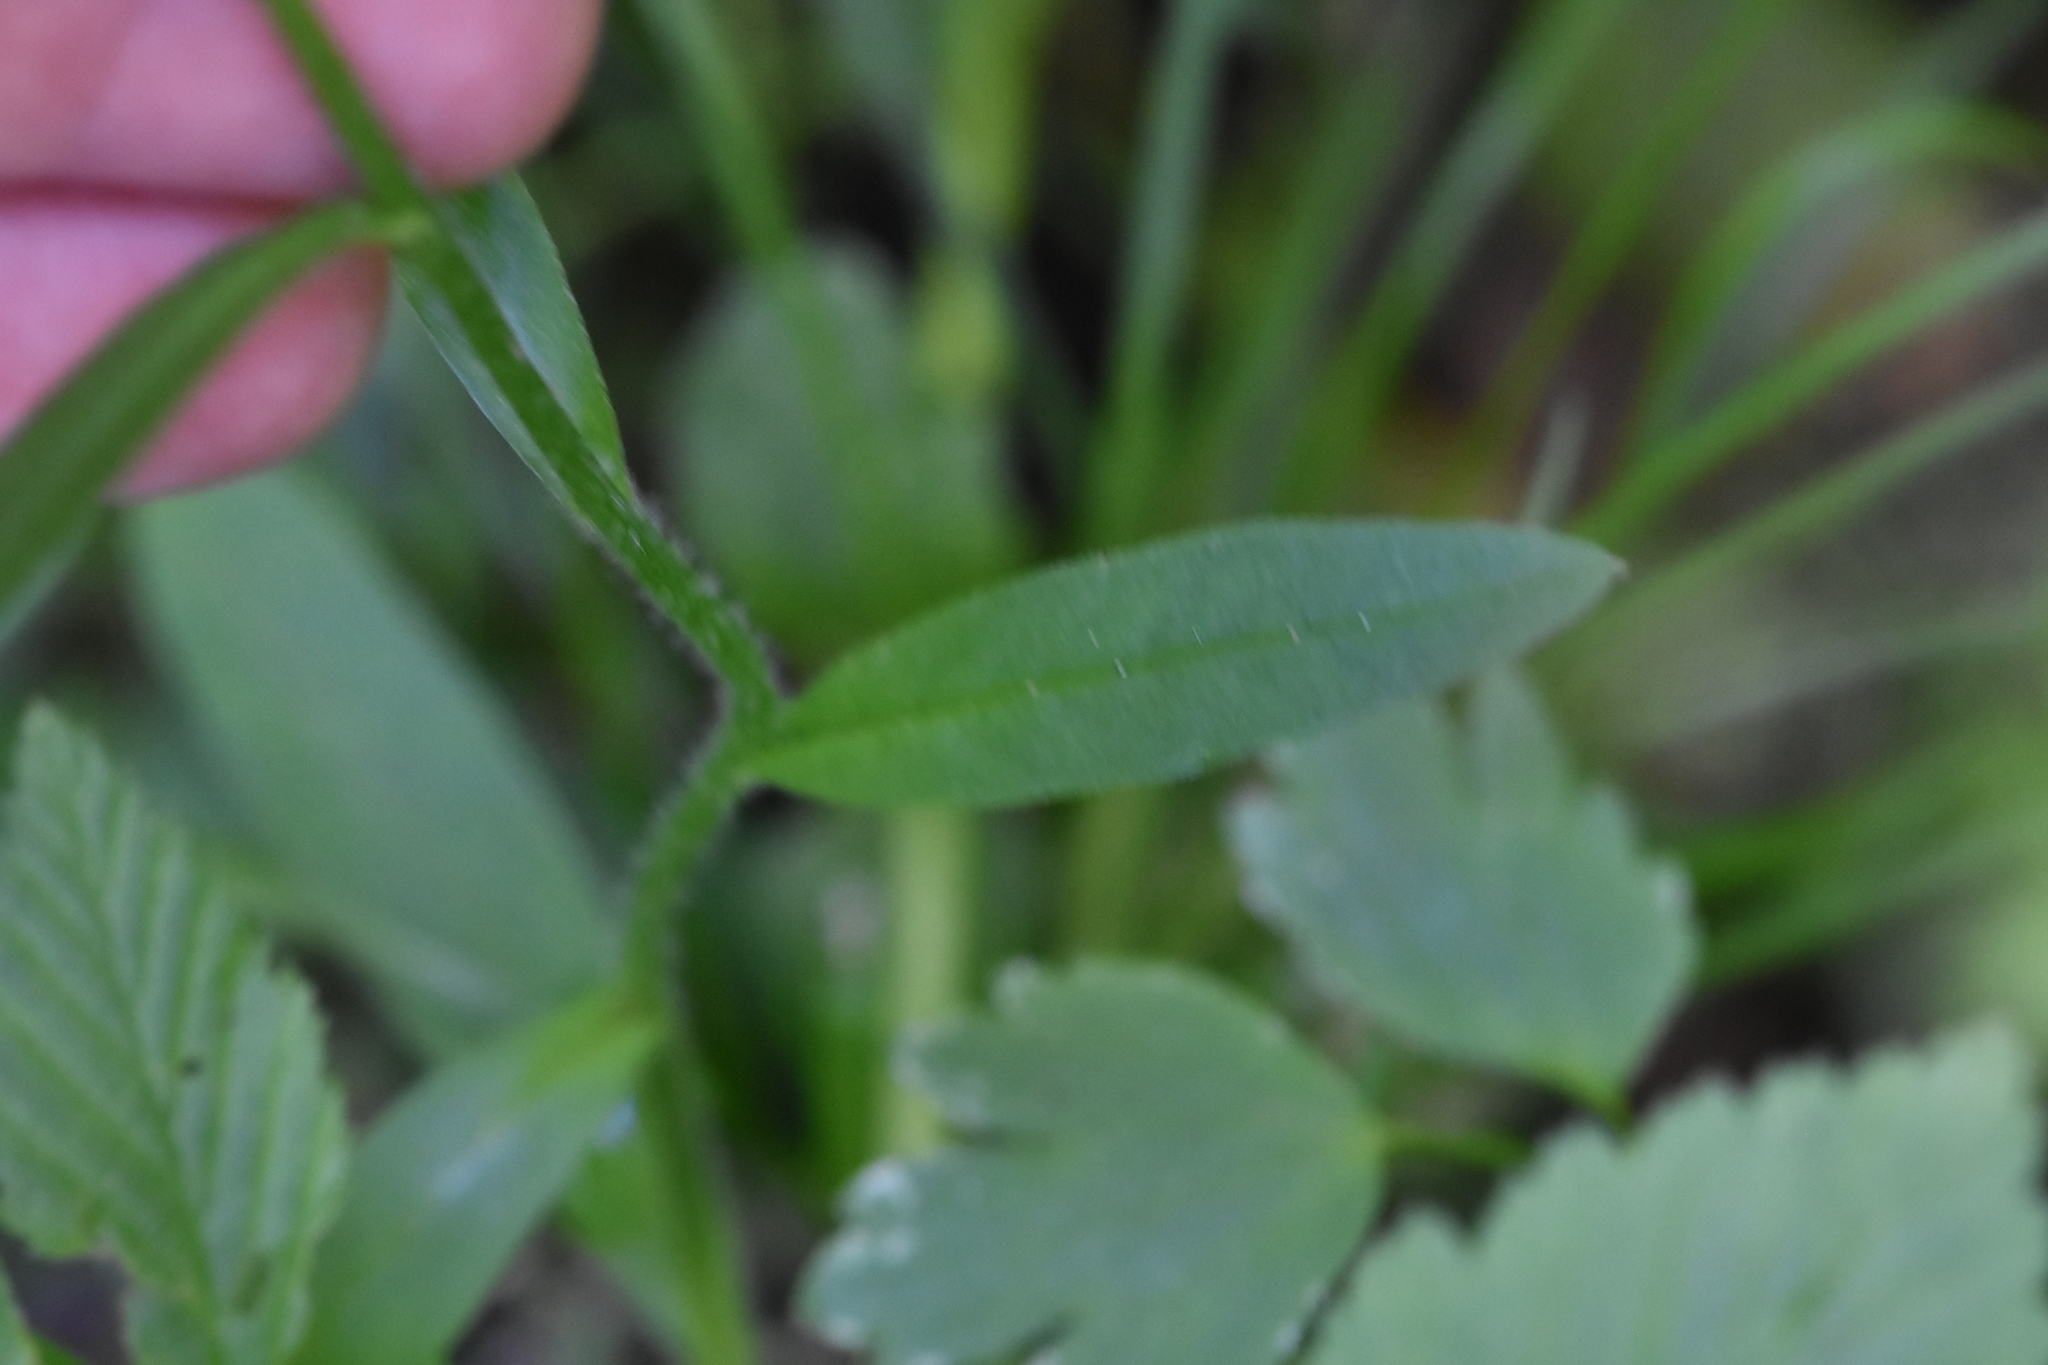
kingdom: Plantae
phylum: Tracheophyta
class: Magnoliopsida
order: Boraginales
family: Boraginaceae
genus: Myosotis
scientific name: Myosotis scorpioides
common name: Water forget-me-not
